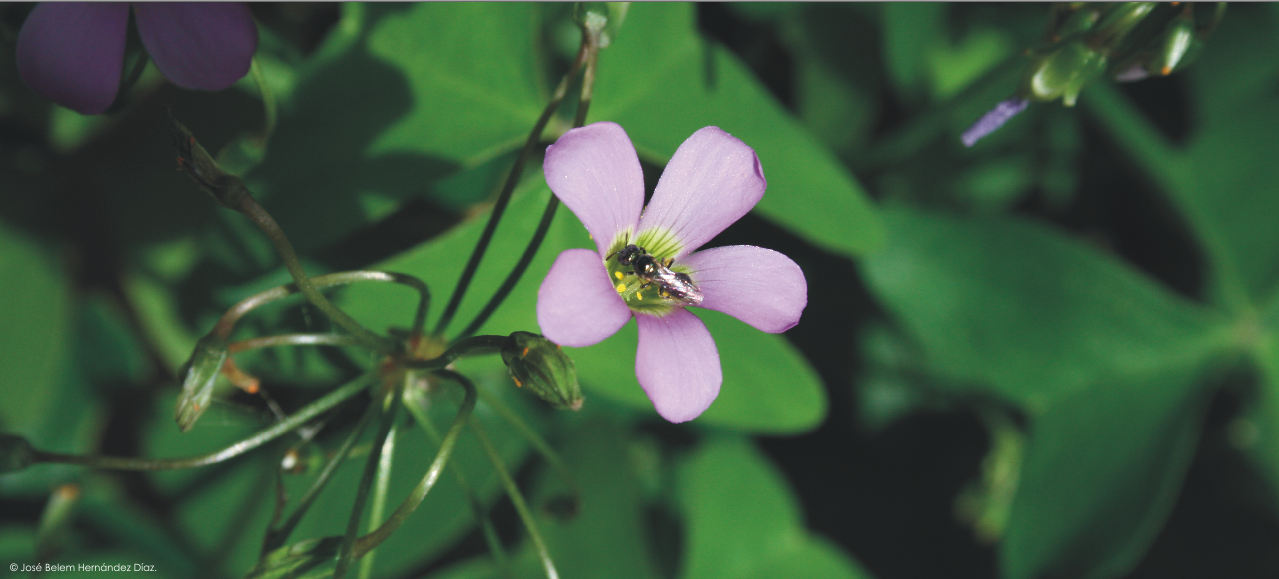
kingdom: Plantae
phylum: Tracheophyta
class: Magnoliopsida
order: Oxalidales
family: Oxalidaceae
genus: Oxalis
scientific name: Oxalis latifolia
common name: Garden pink-sorrel
